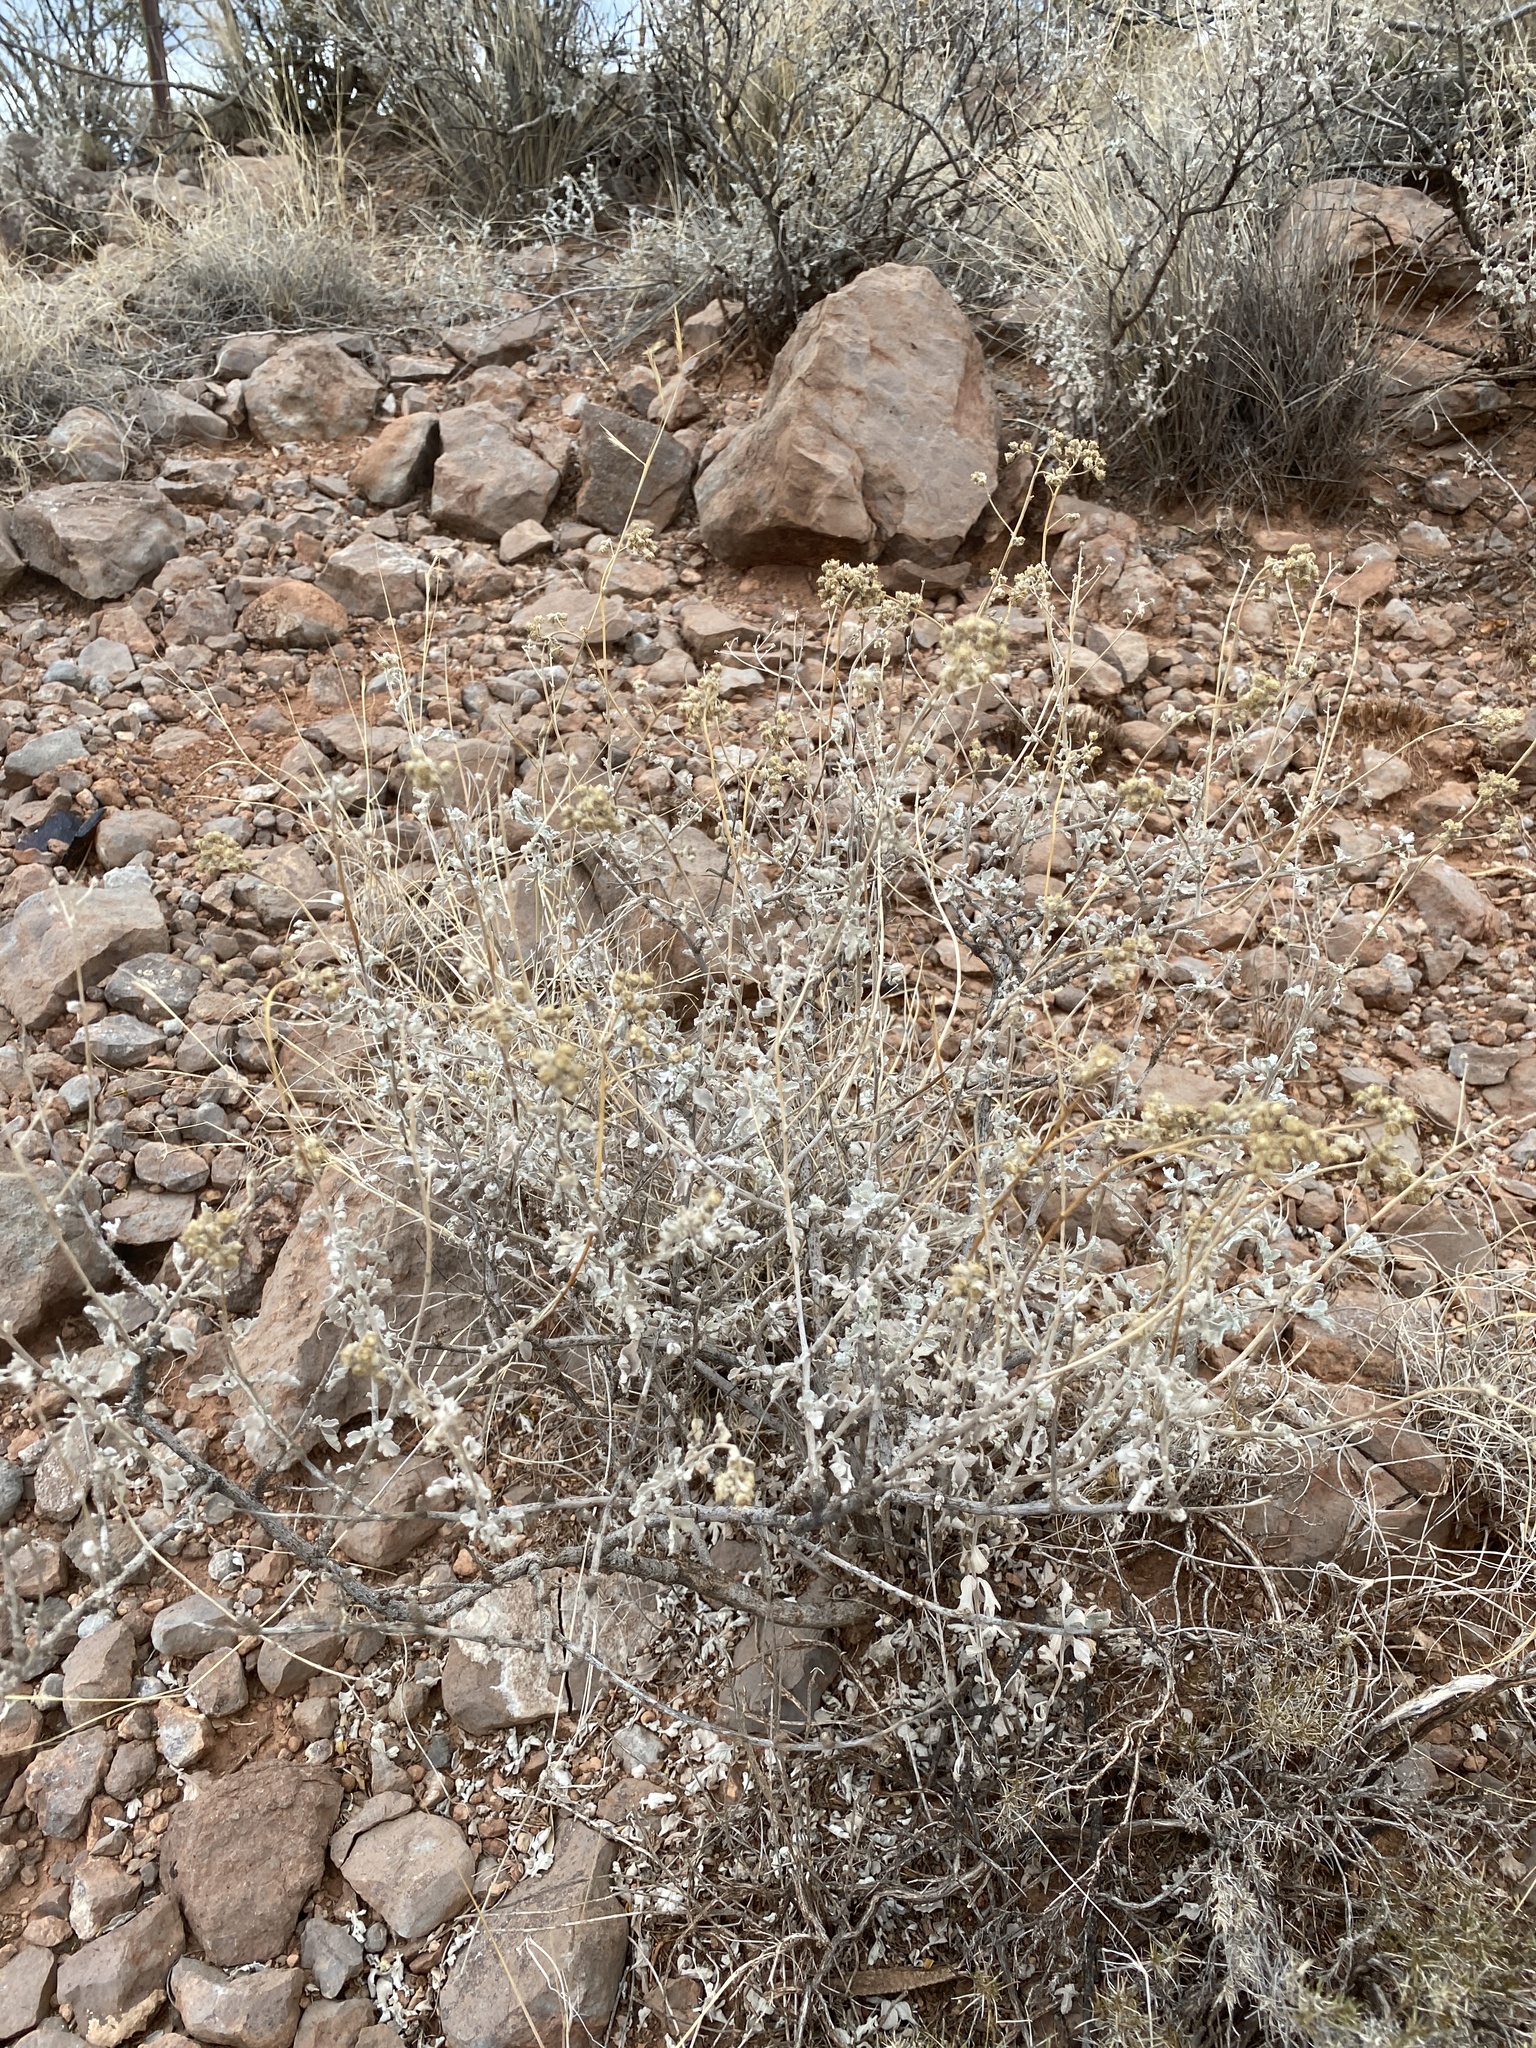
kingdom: Plantae
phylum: Tracheophyta
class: Magnoliopsida
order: Asterales
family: Asteraceae
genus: Parthenium
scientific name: Parthenium incanum
